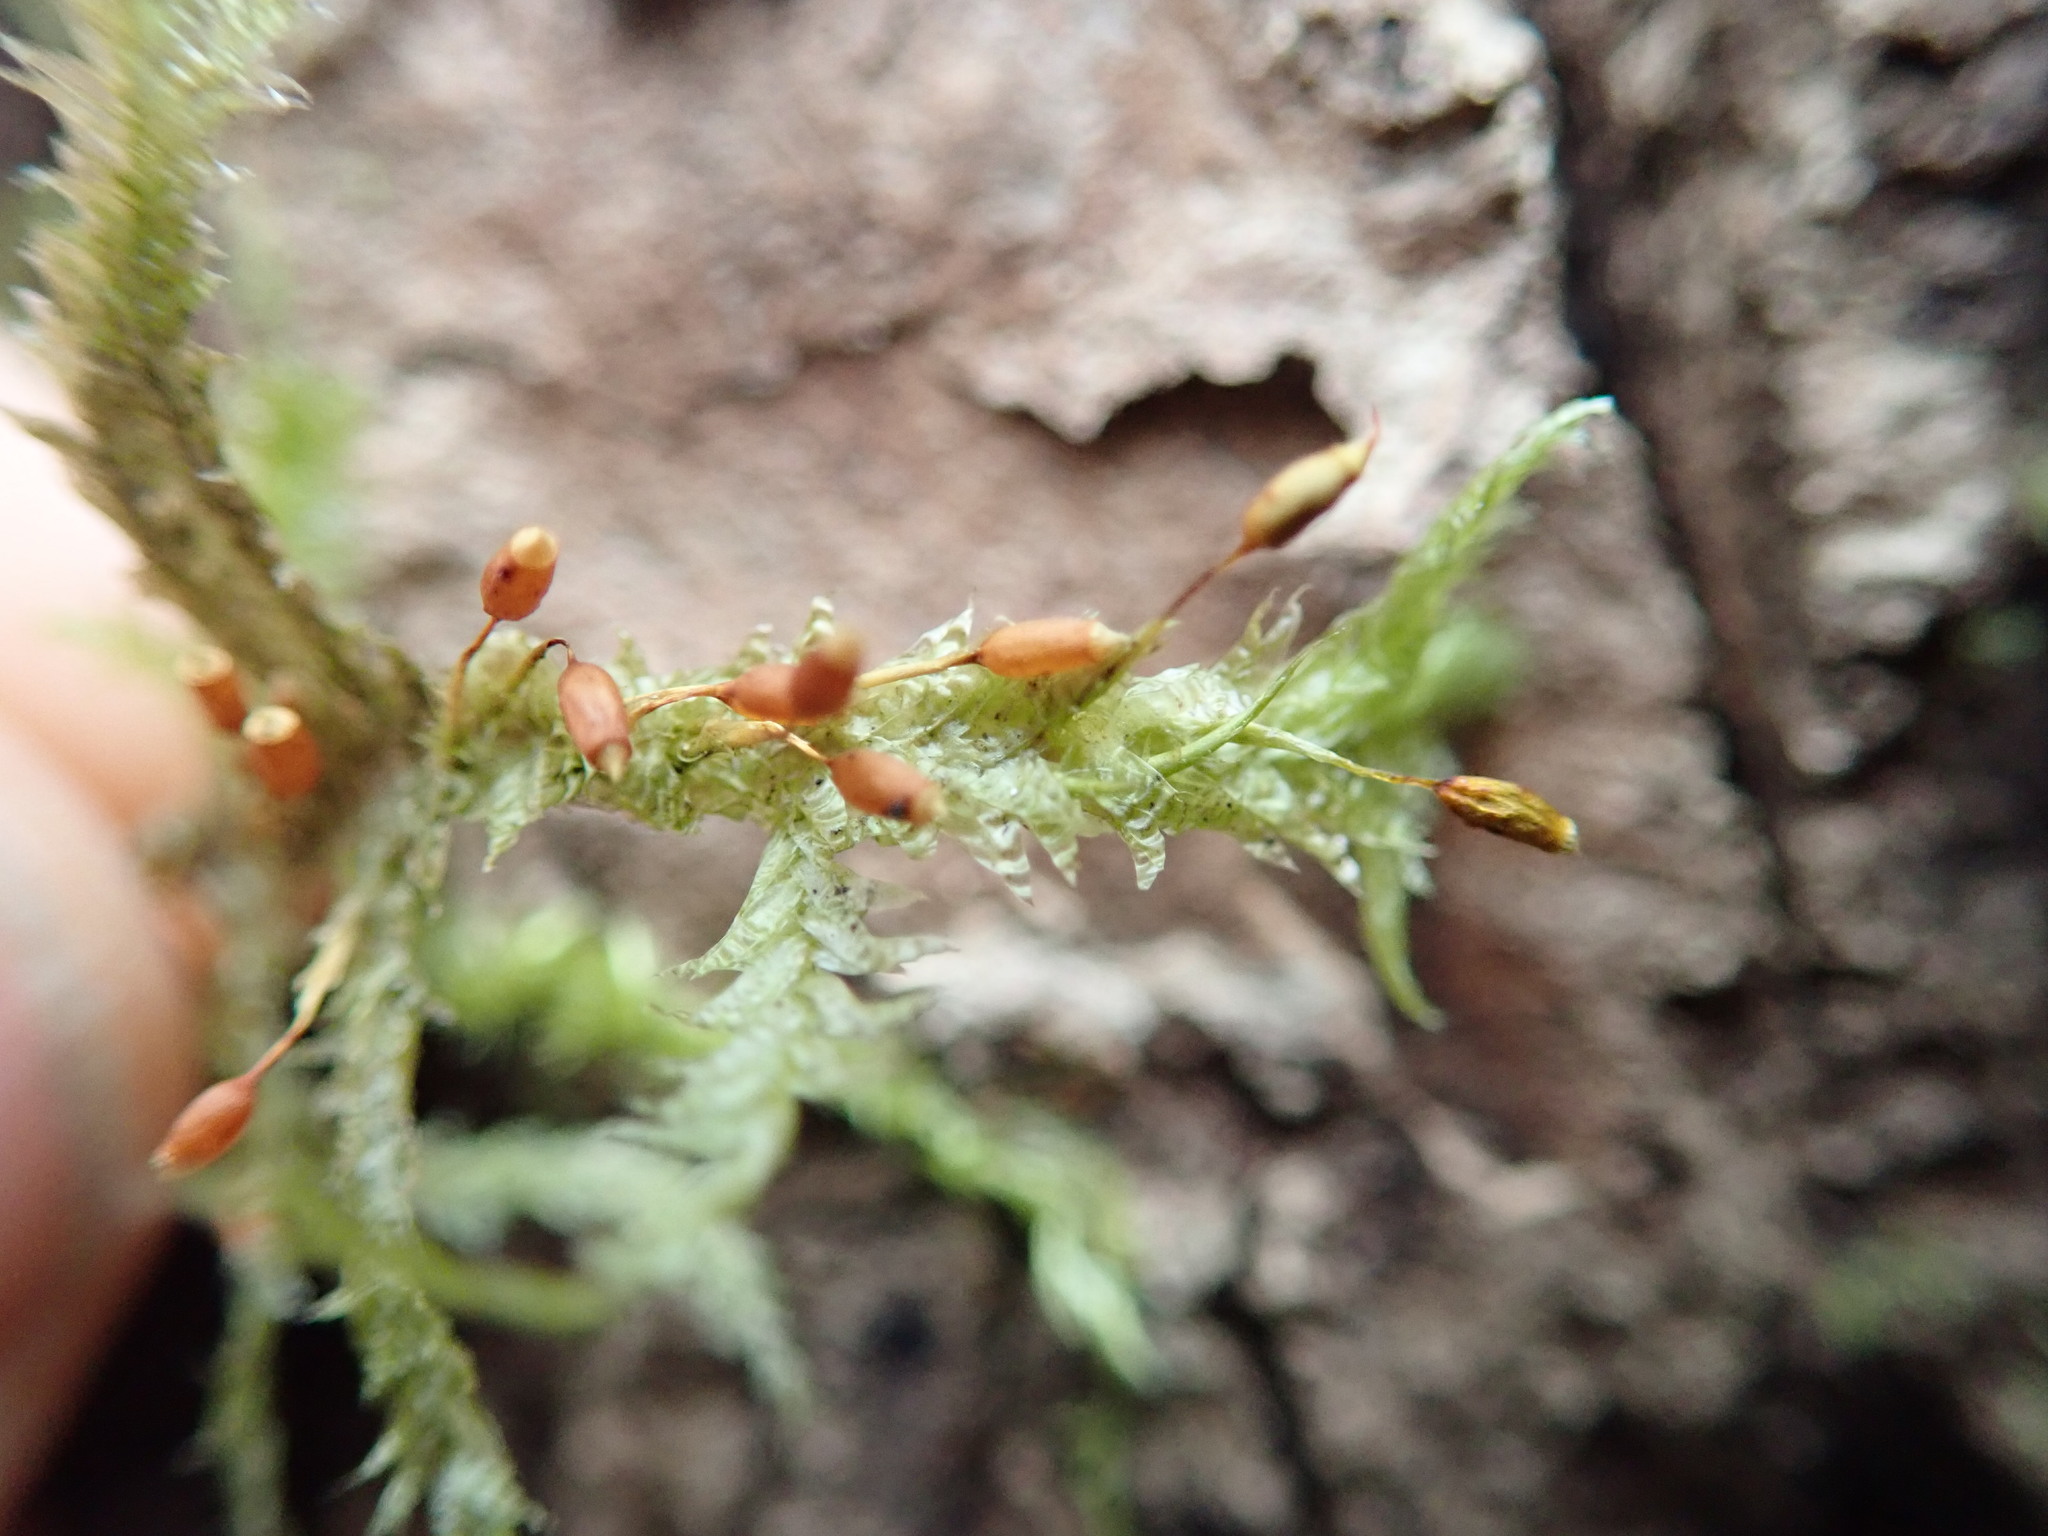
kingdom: Plantae
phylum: Bryophyta
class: Bryopsida
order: Hypnales
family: Neckeraceae
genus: Neckera
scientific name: Neckera douglasii
